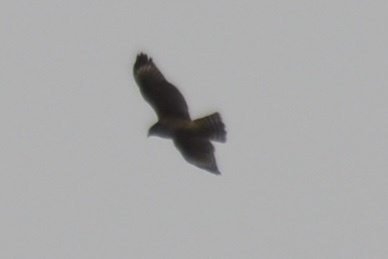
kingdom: Animalia
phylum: Chordata
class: Aves
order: Accipitriformes
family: Accipitridae
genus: Accipiter
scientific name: Accipiter cooperii
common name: Cooper's hawk
